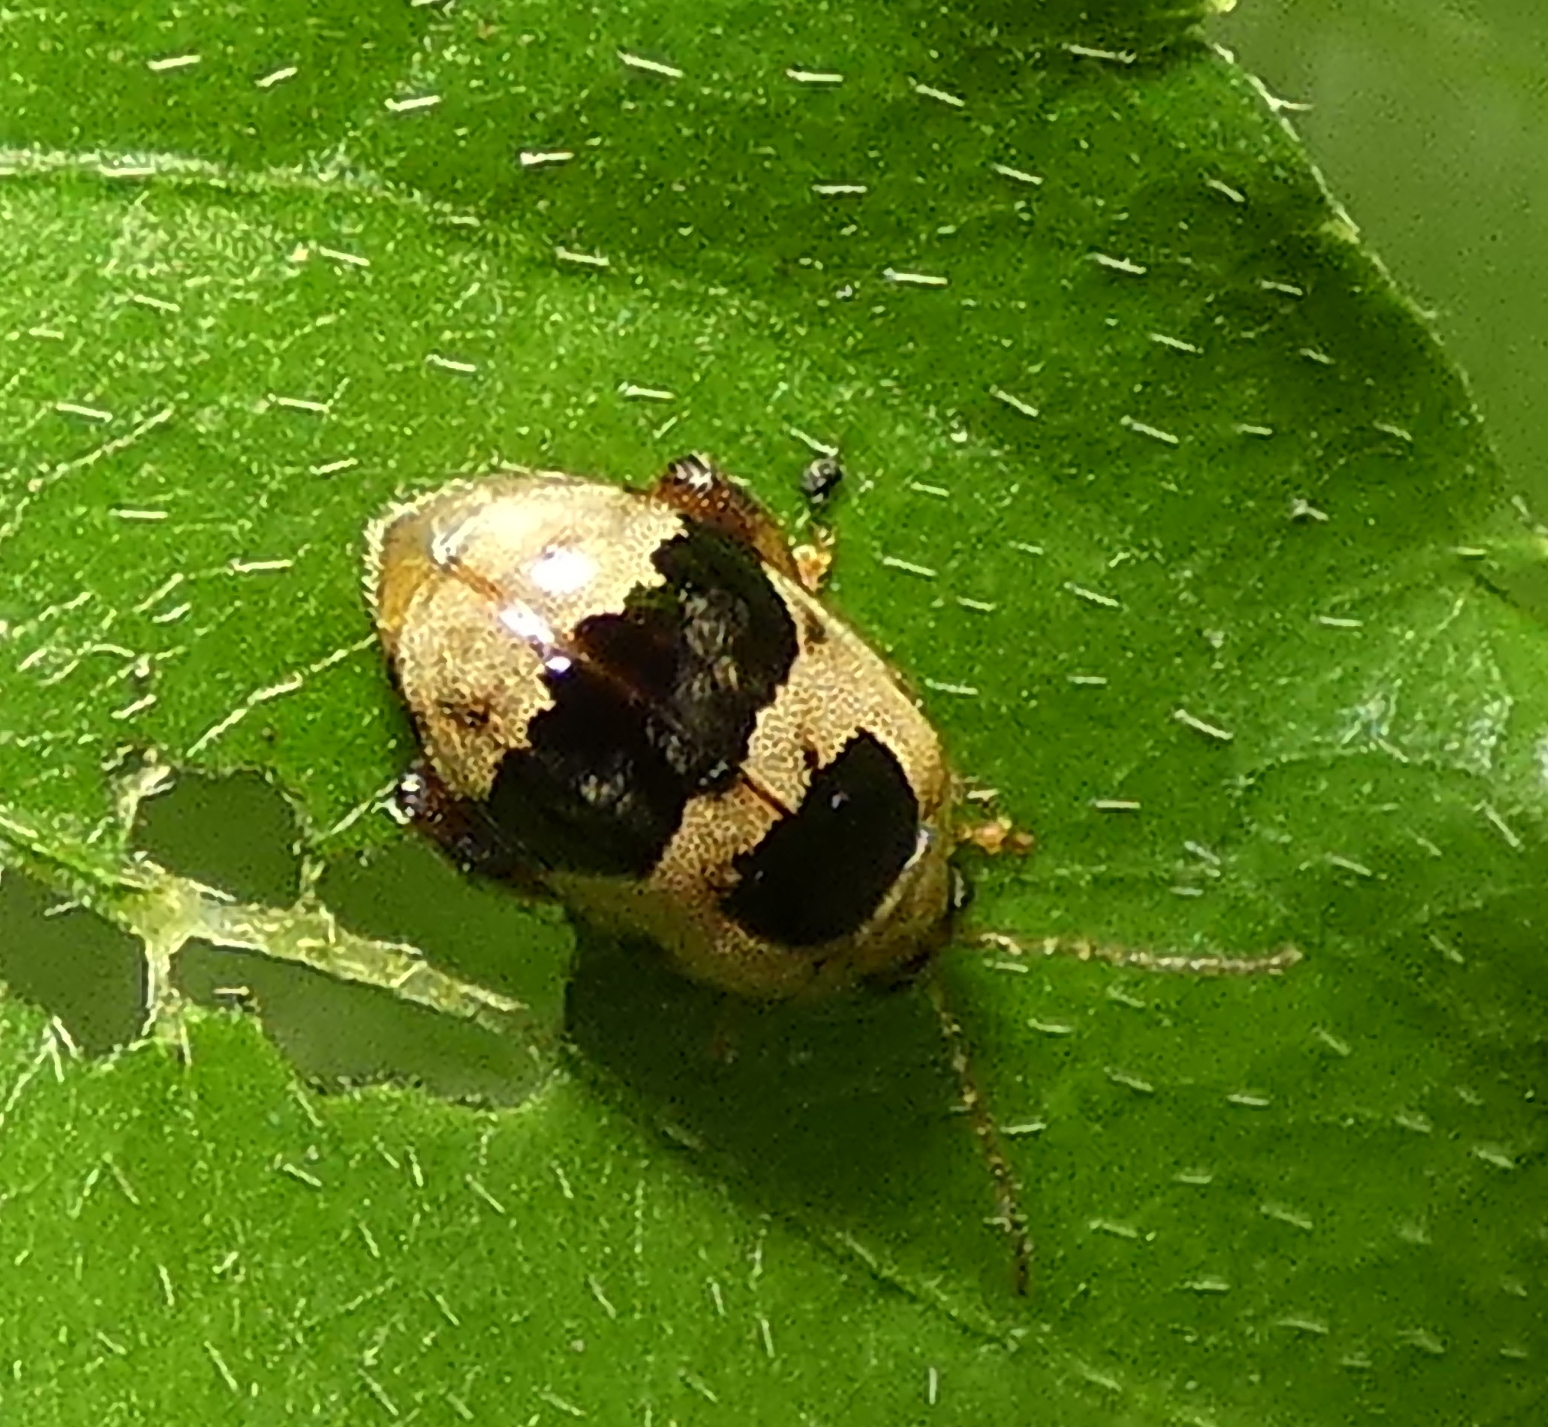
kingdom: Animalia
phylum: Arthropoda
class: Insecta
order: Coleoptera
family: Chrysomelidae
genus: Alagoasa
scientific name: Alagoasa
